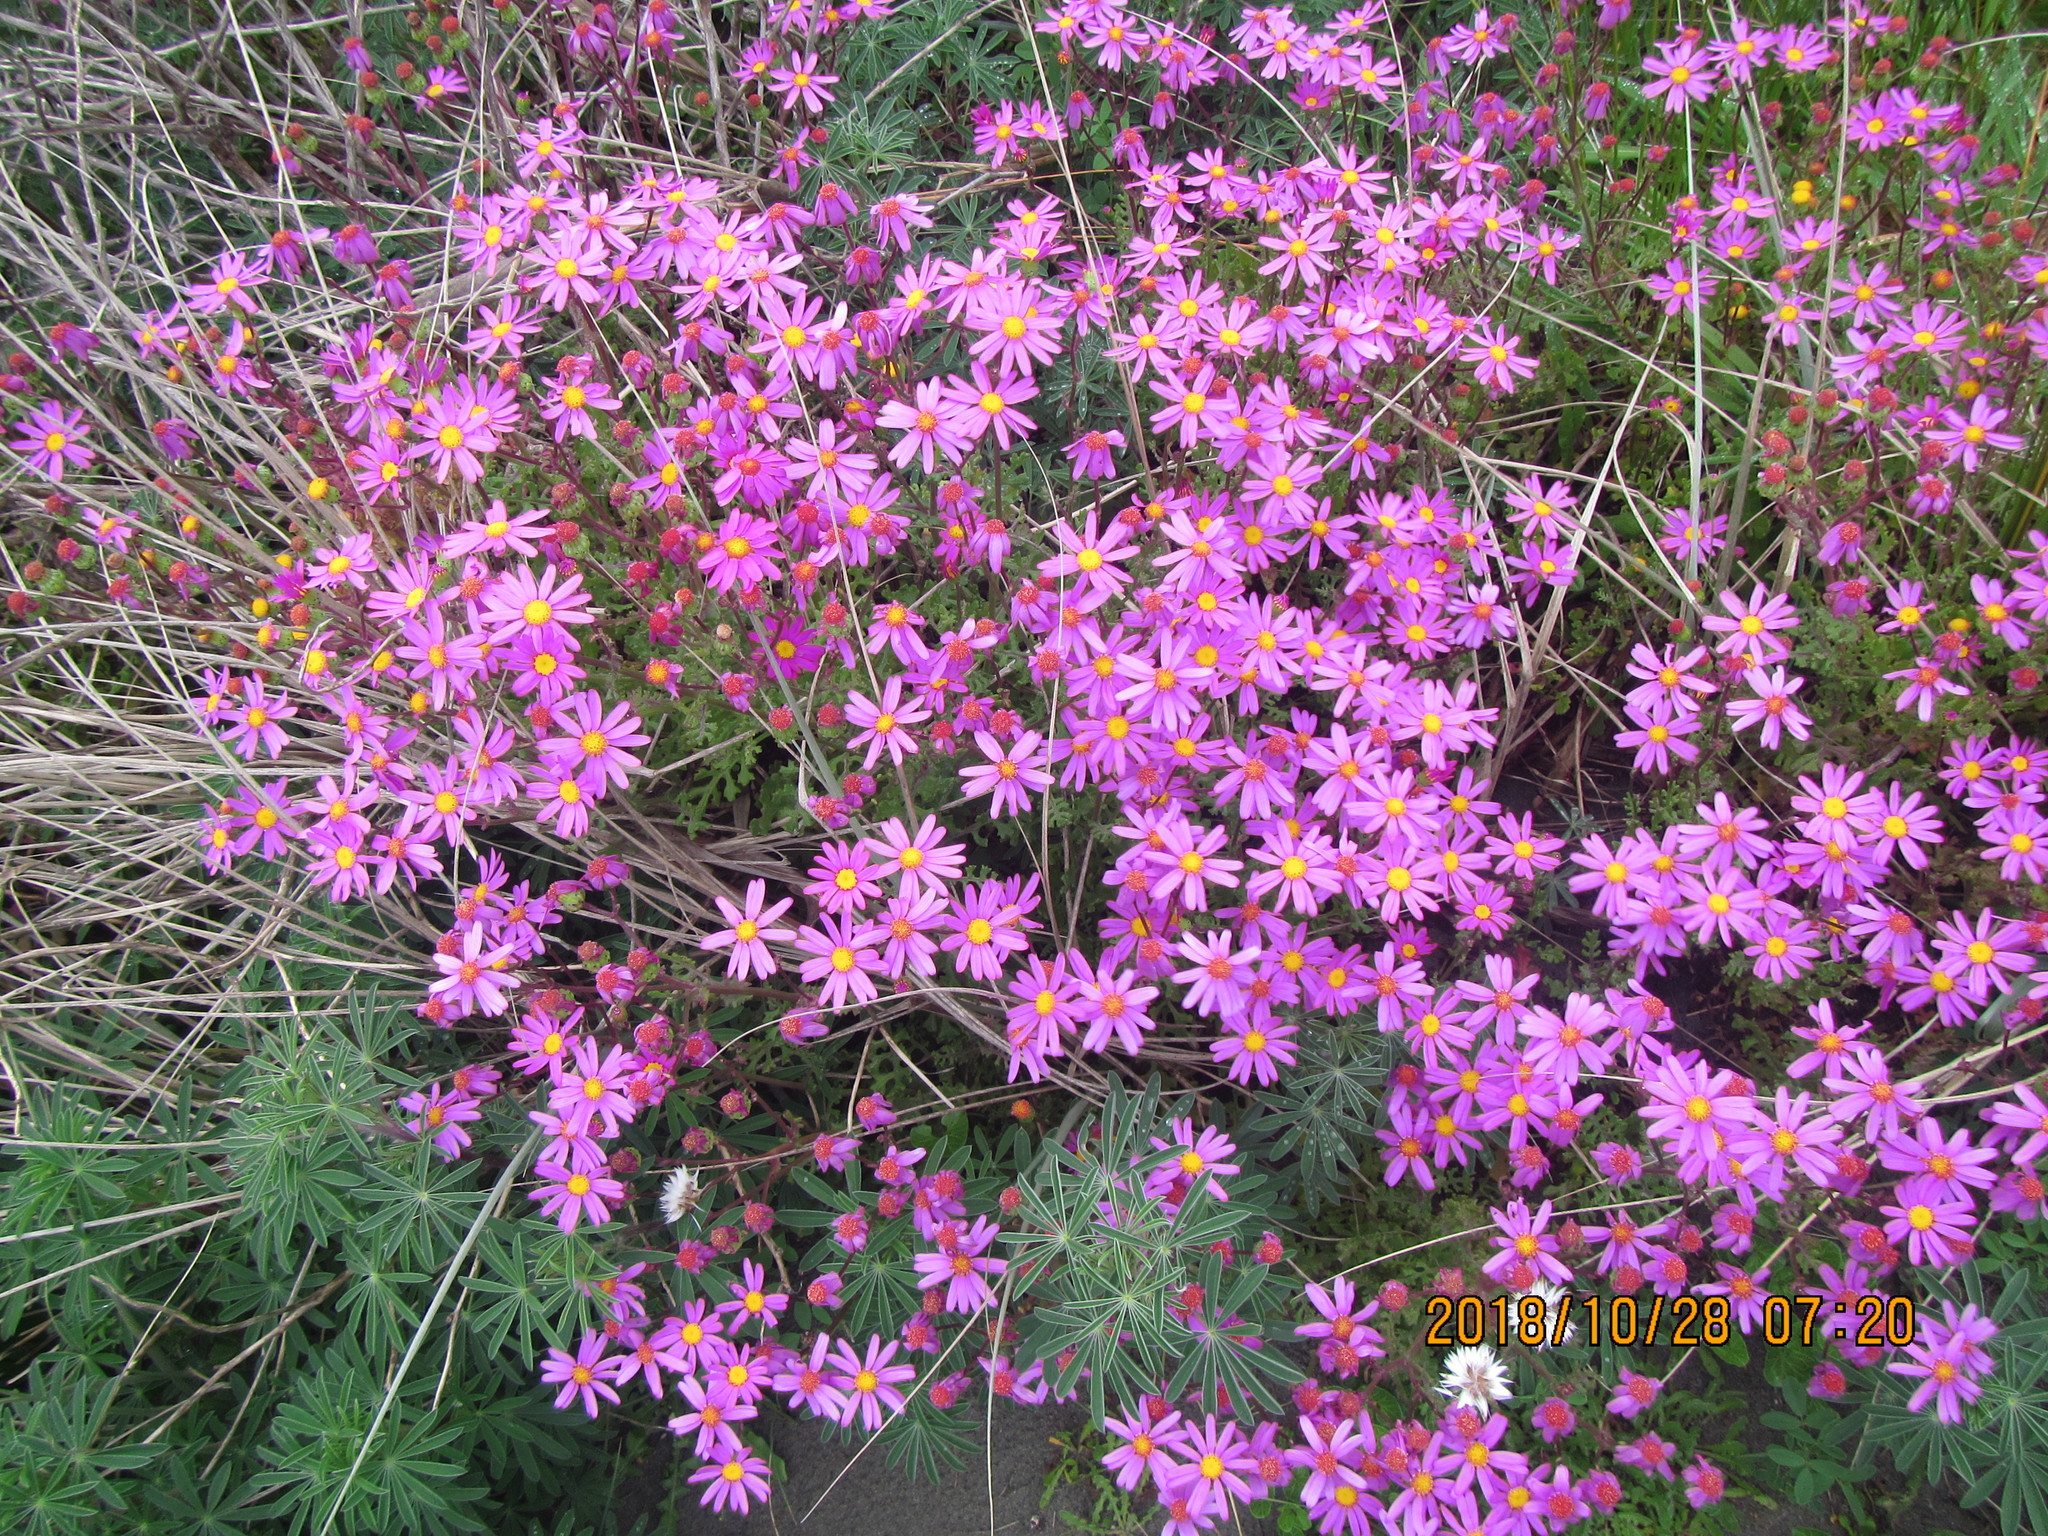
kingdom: Plantae
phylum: Tracheophyta
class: Magnoliopsida
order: Asterales
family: Asteraceae
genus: Senecio
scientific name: Senecio elegans
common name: Purple groundsel
